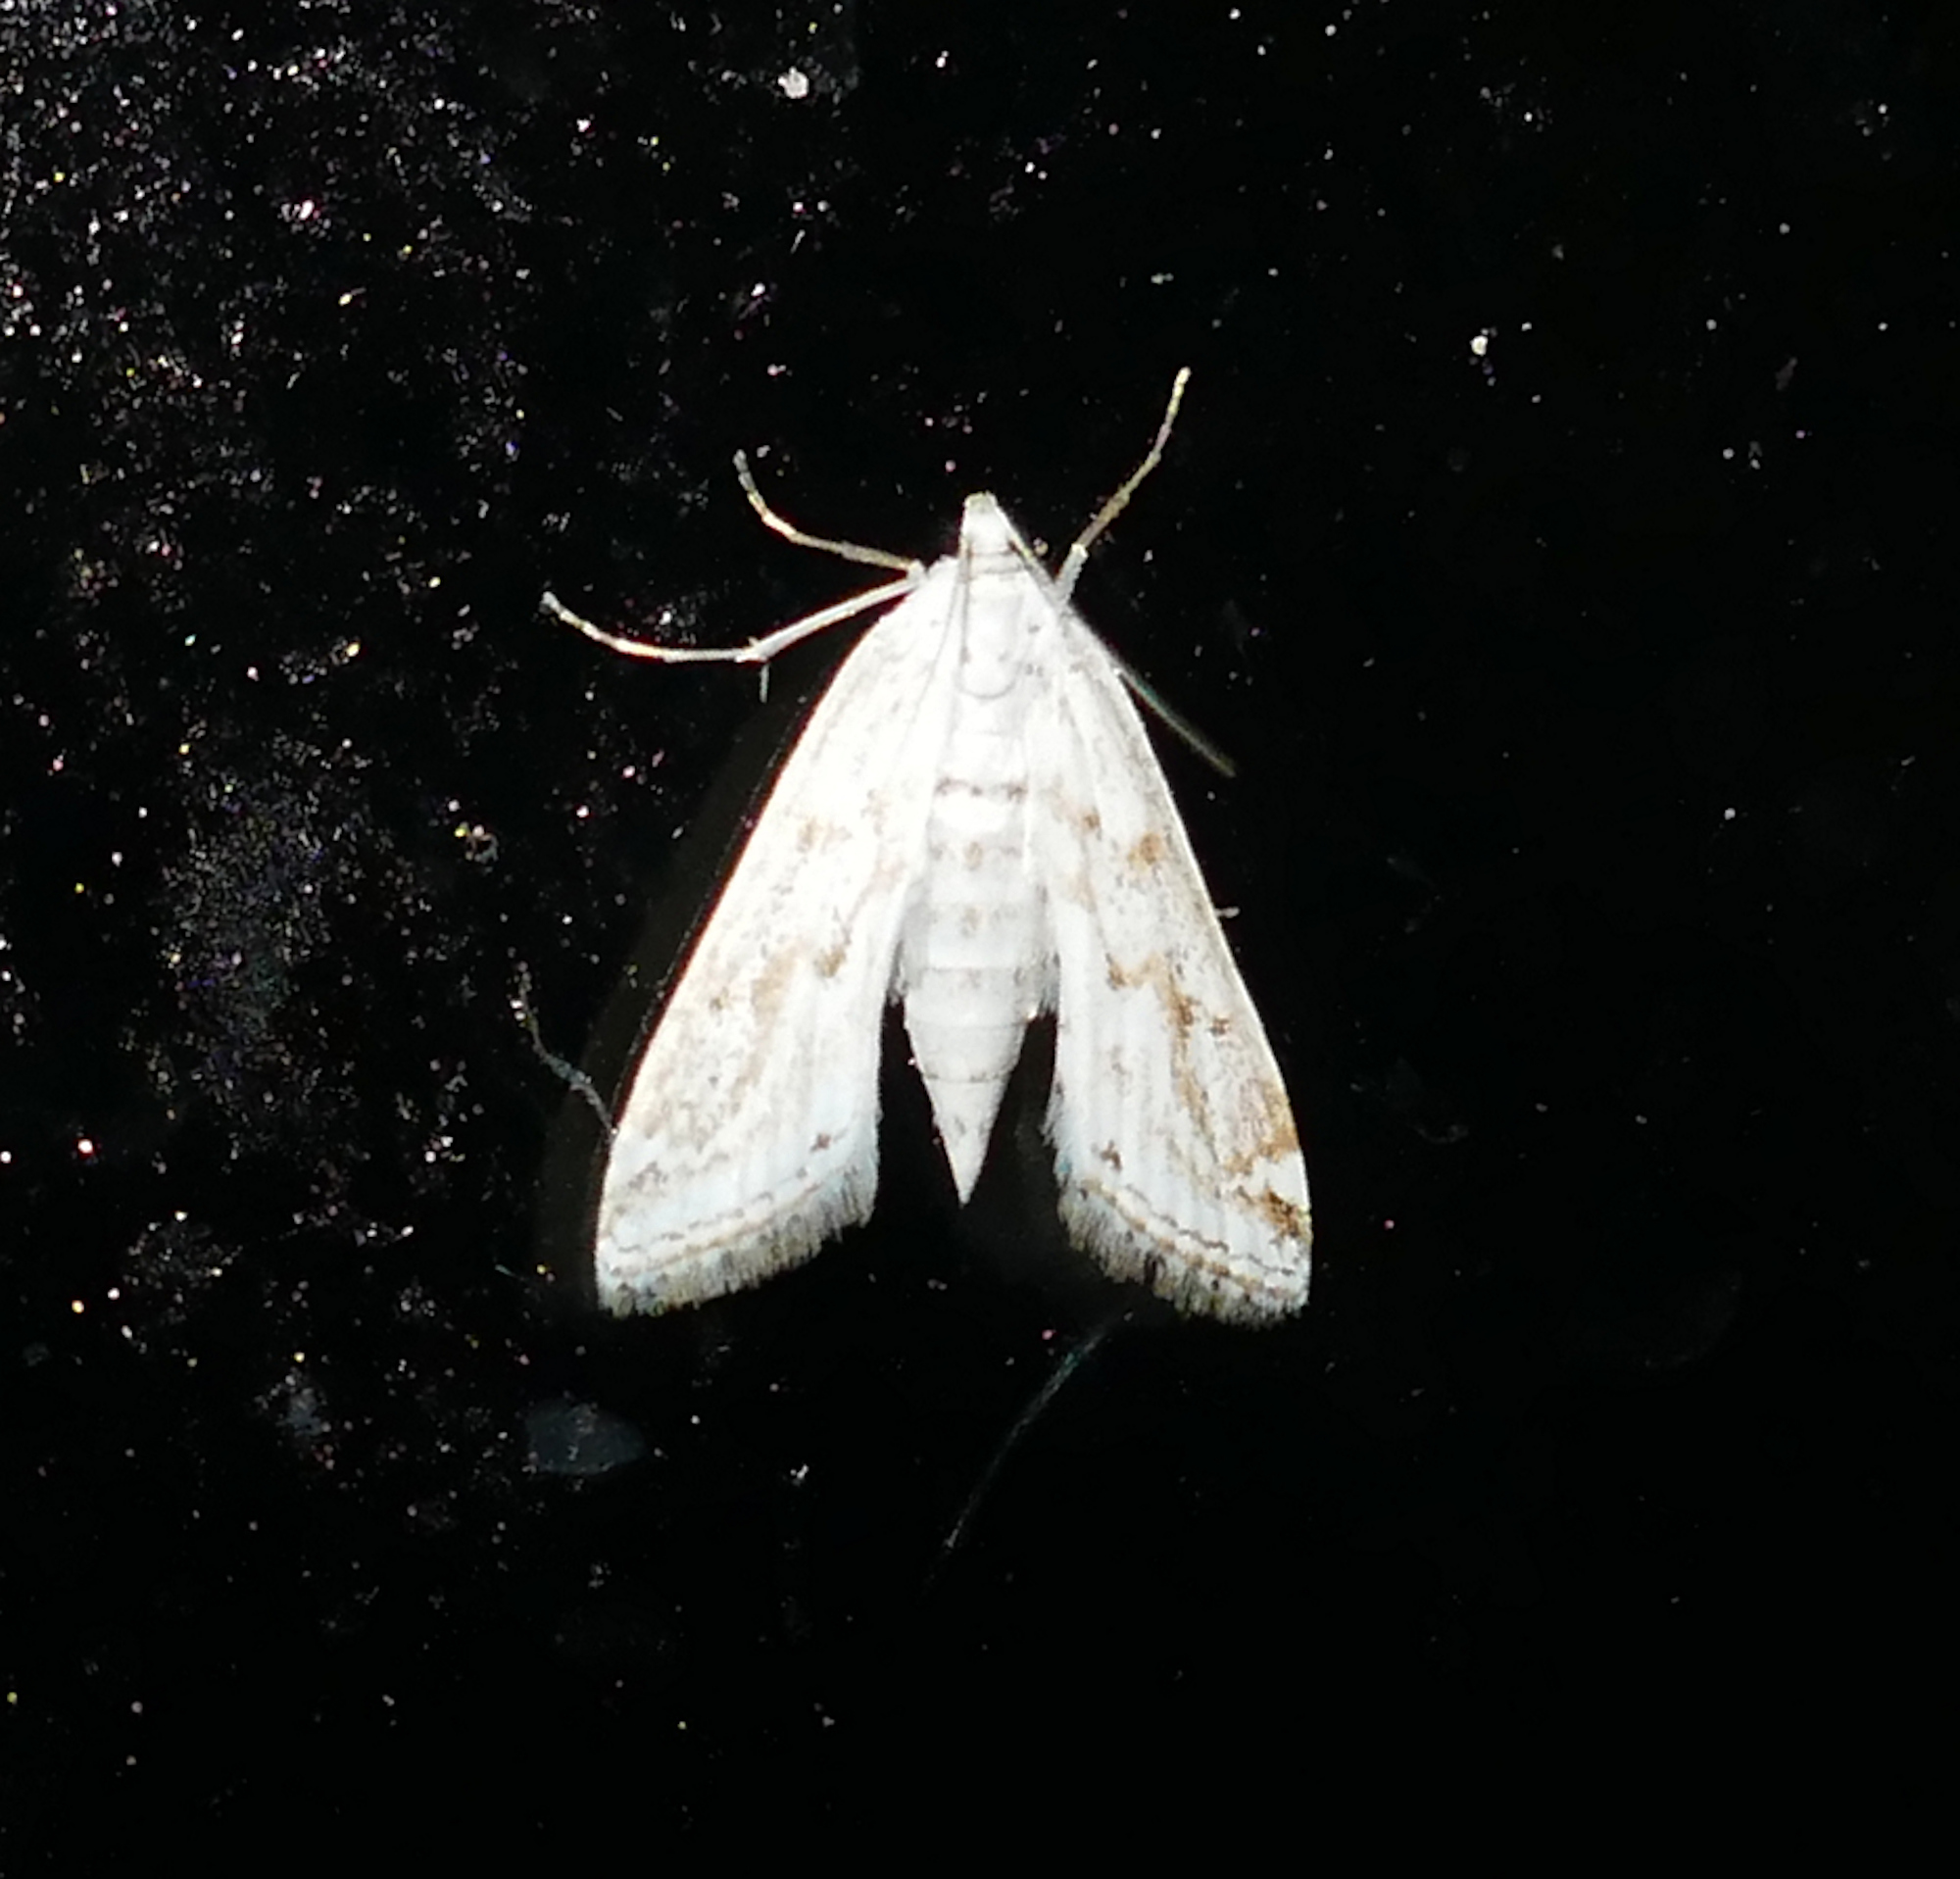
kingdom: Animalia
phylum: Arthropoda
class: Insecta
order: Lepidoptera
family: Crambidae
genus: Parapoynx
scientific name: Parapoynx allionealis
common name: Bladderwort casemaker
